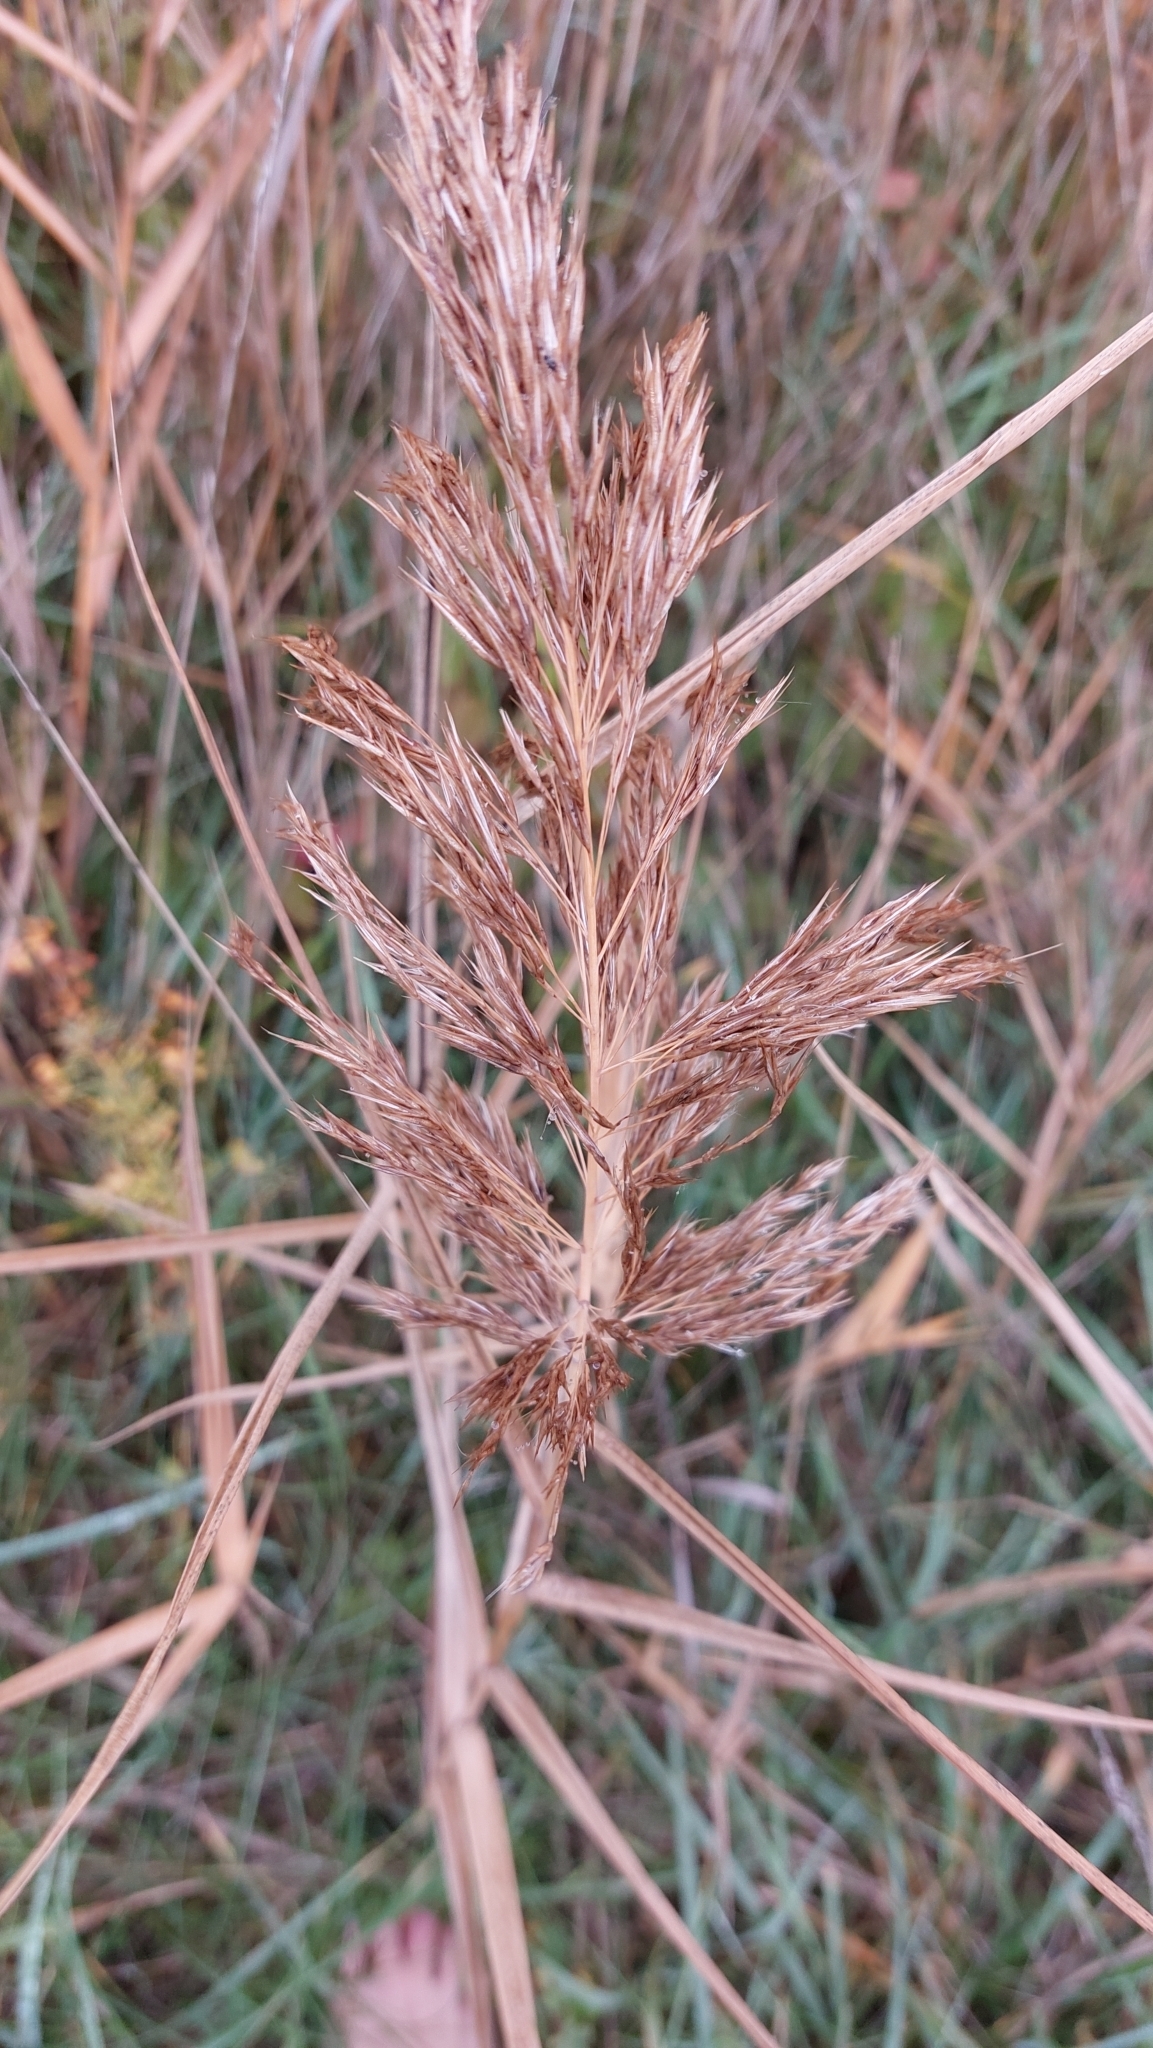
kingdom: Plantae
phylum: Tracheophyta
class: Liliopsida
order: Poales
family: Poaceae
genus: Phragmites
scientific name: Phragmites australis
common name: Common reed
